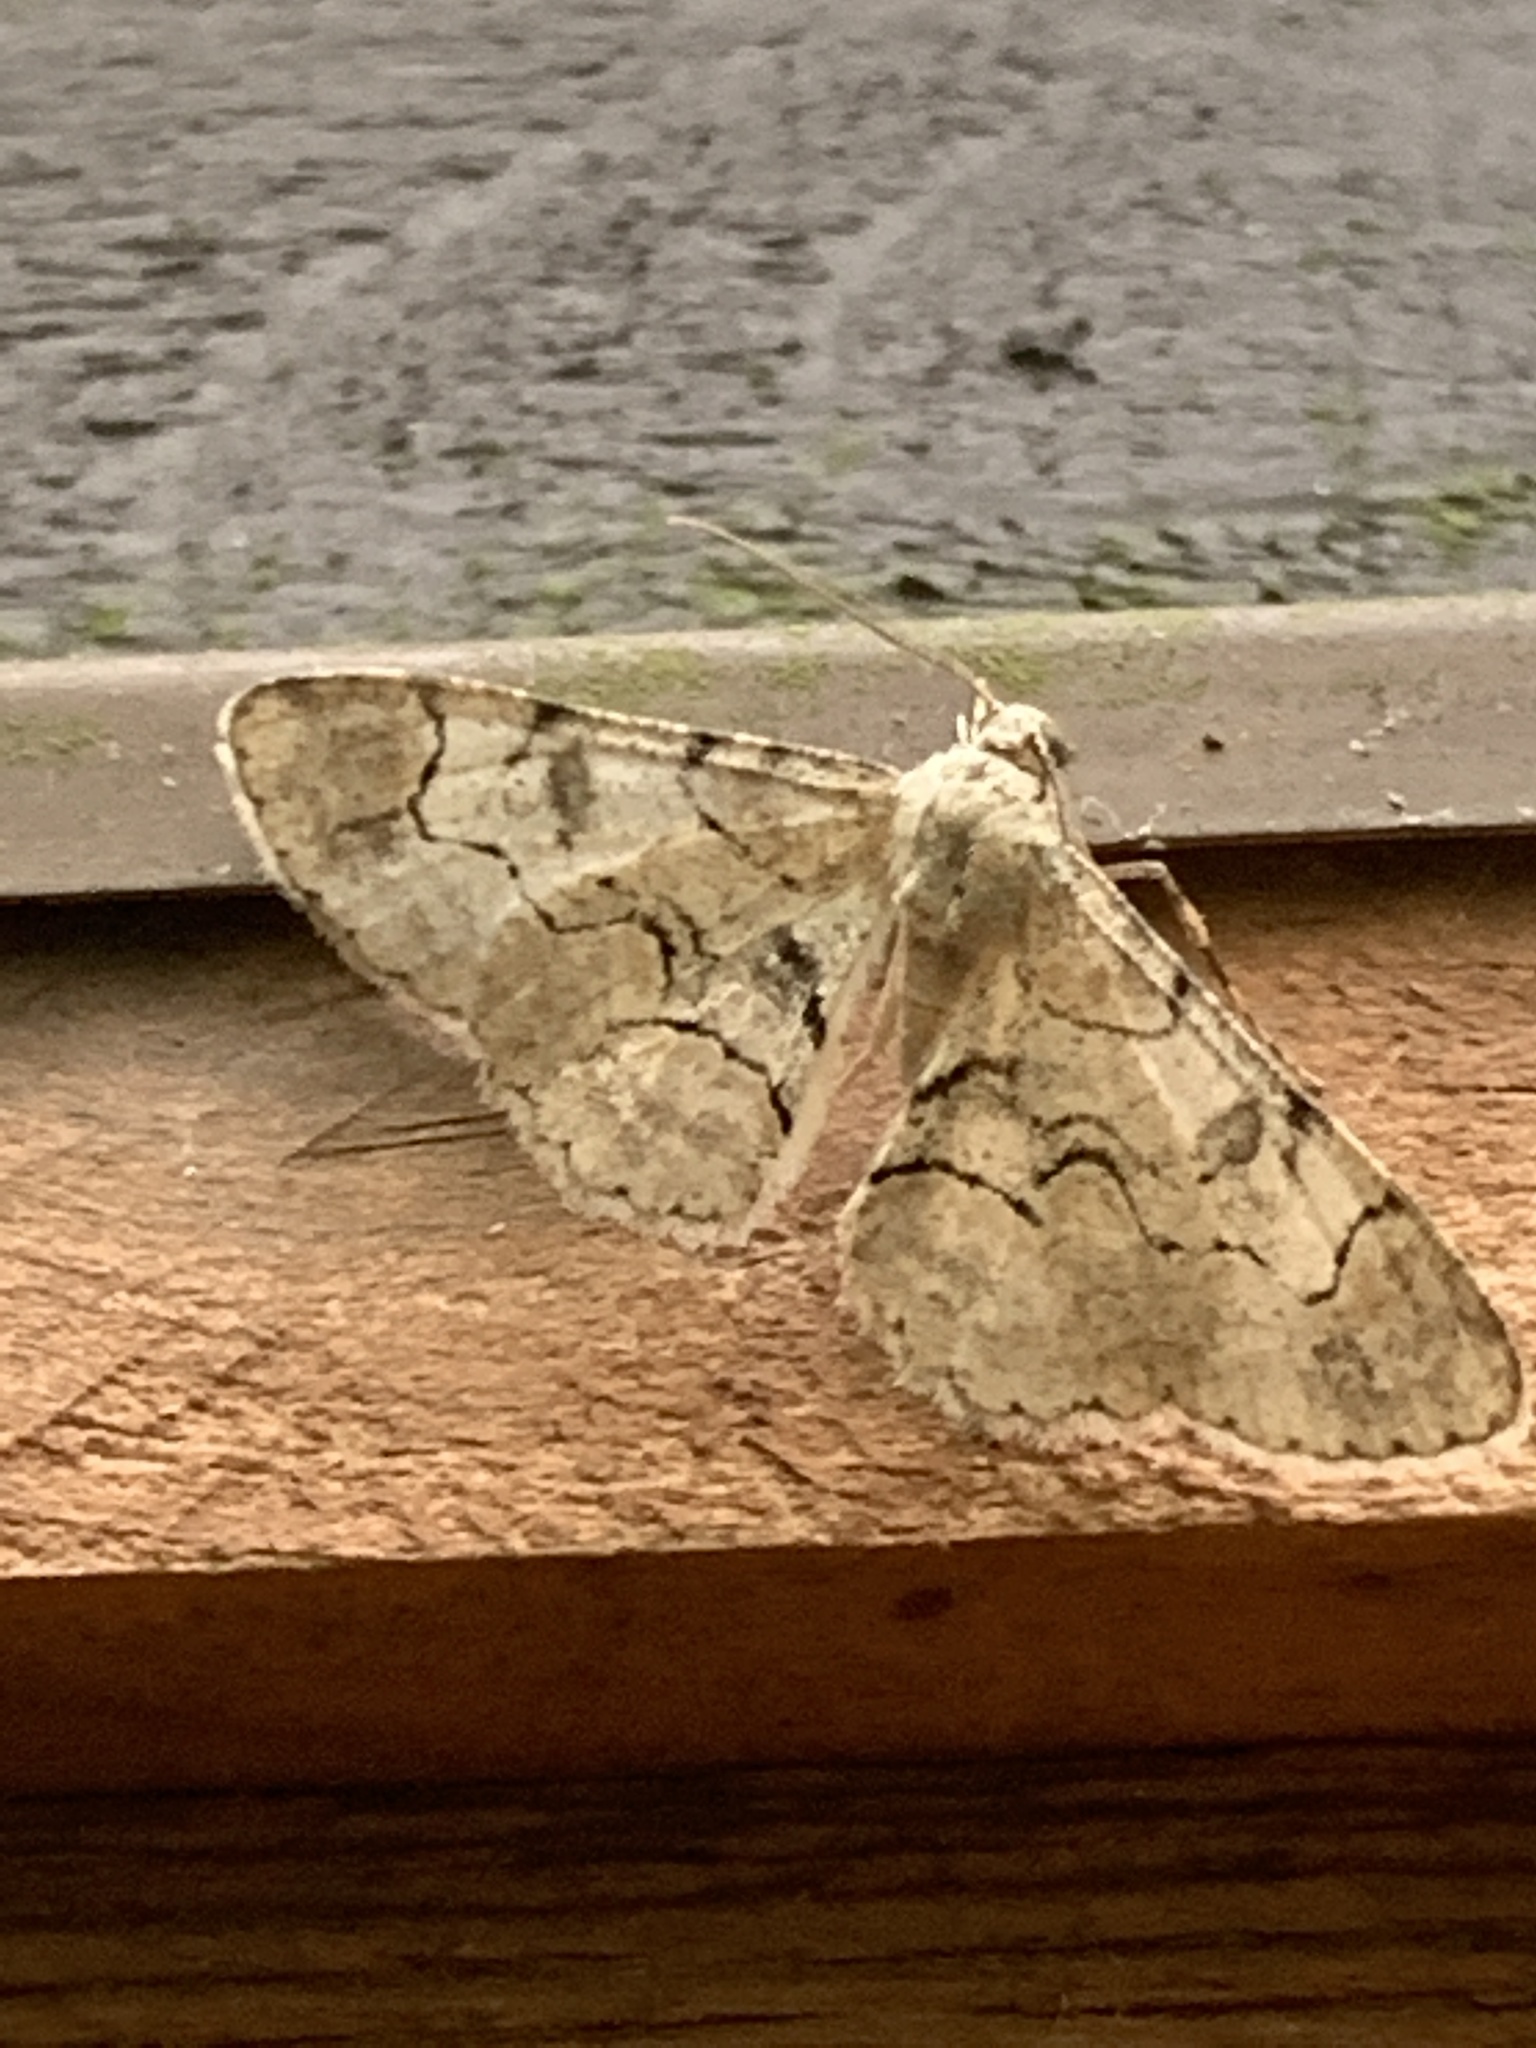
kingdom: Animalia
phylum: Arthropoda
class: Insecta
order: Lepidoptera
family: Geometridae
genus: Iridopsis
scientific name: Iridopsis larvaria
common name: Bent-line gray
